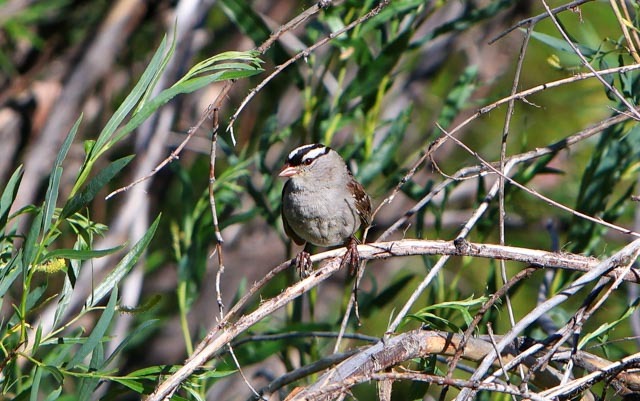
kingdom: Animalia
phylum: Chordata
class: Aves
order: Passeriformes
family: Passerellidae
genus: Zonotrichia
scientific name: Zonotrichia leucophrys
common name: White-crowned sparrow
